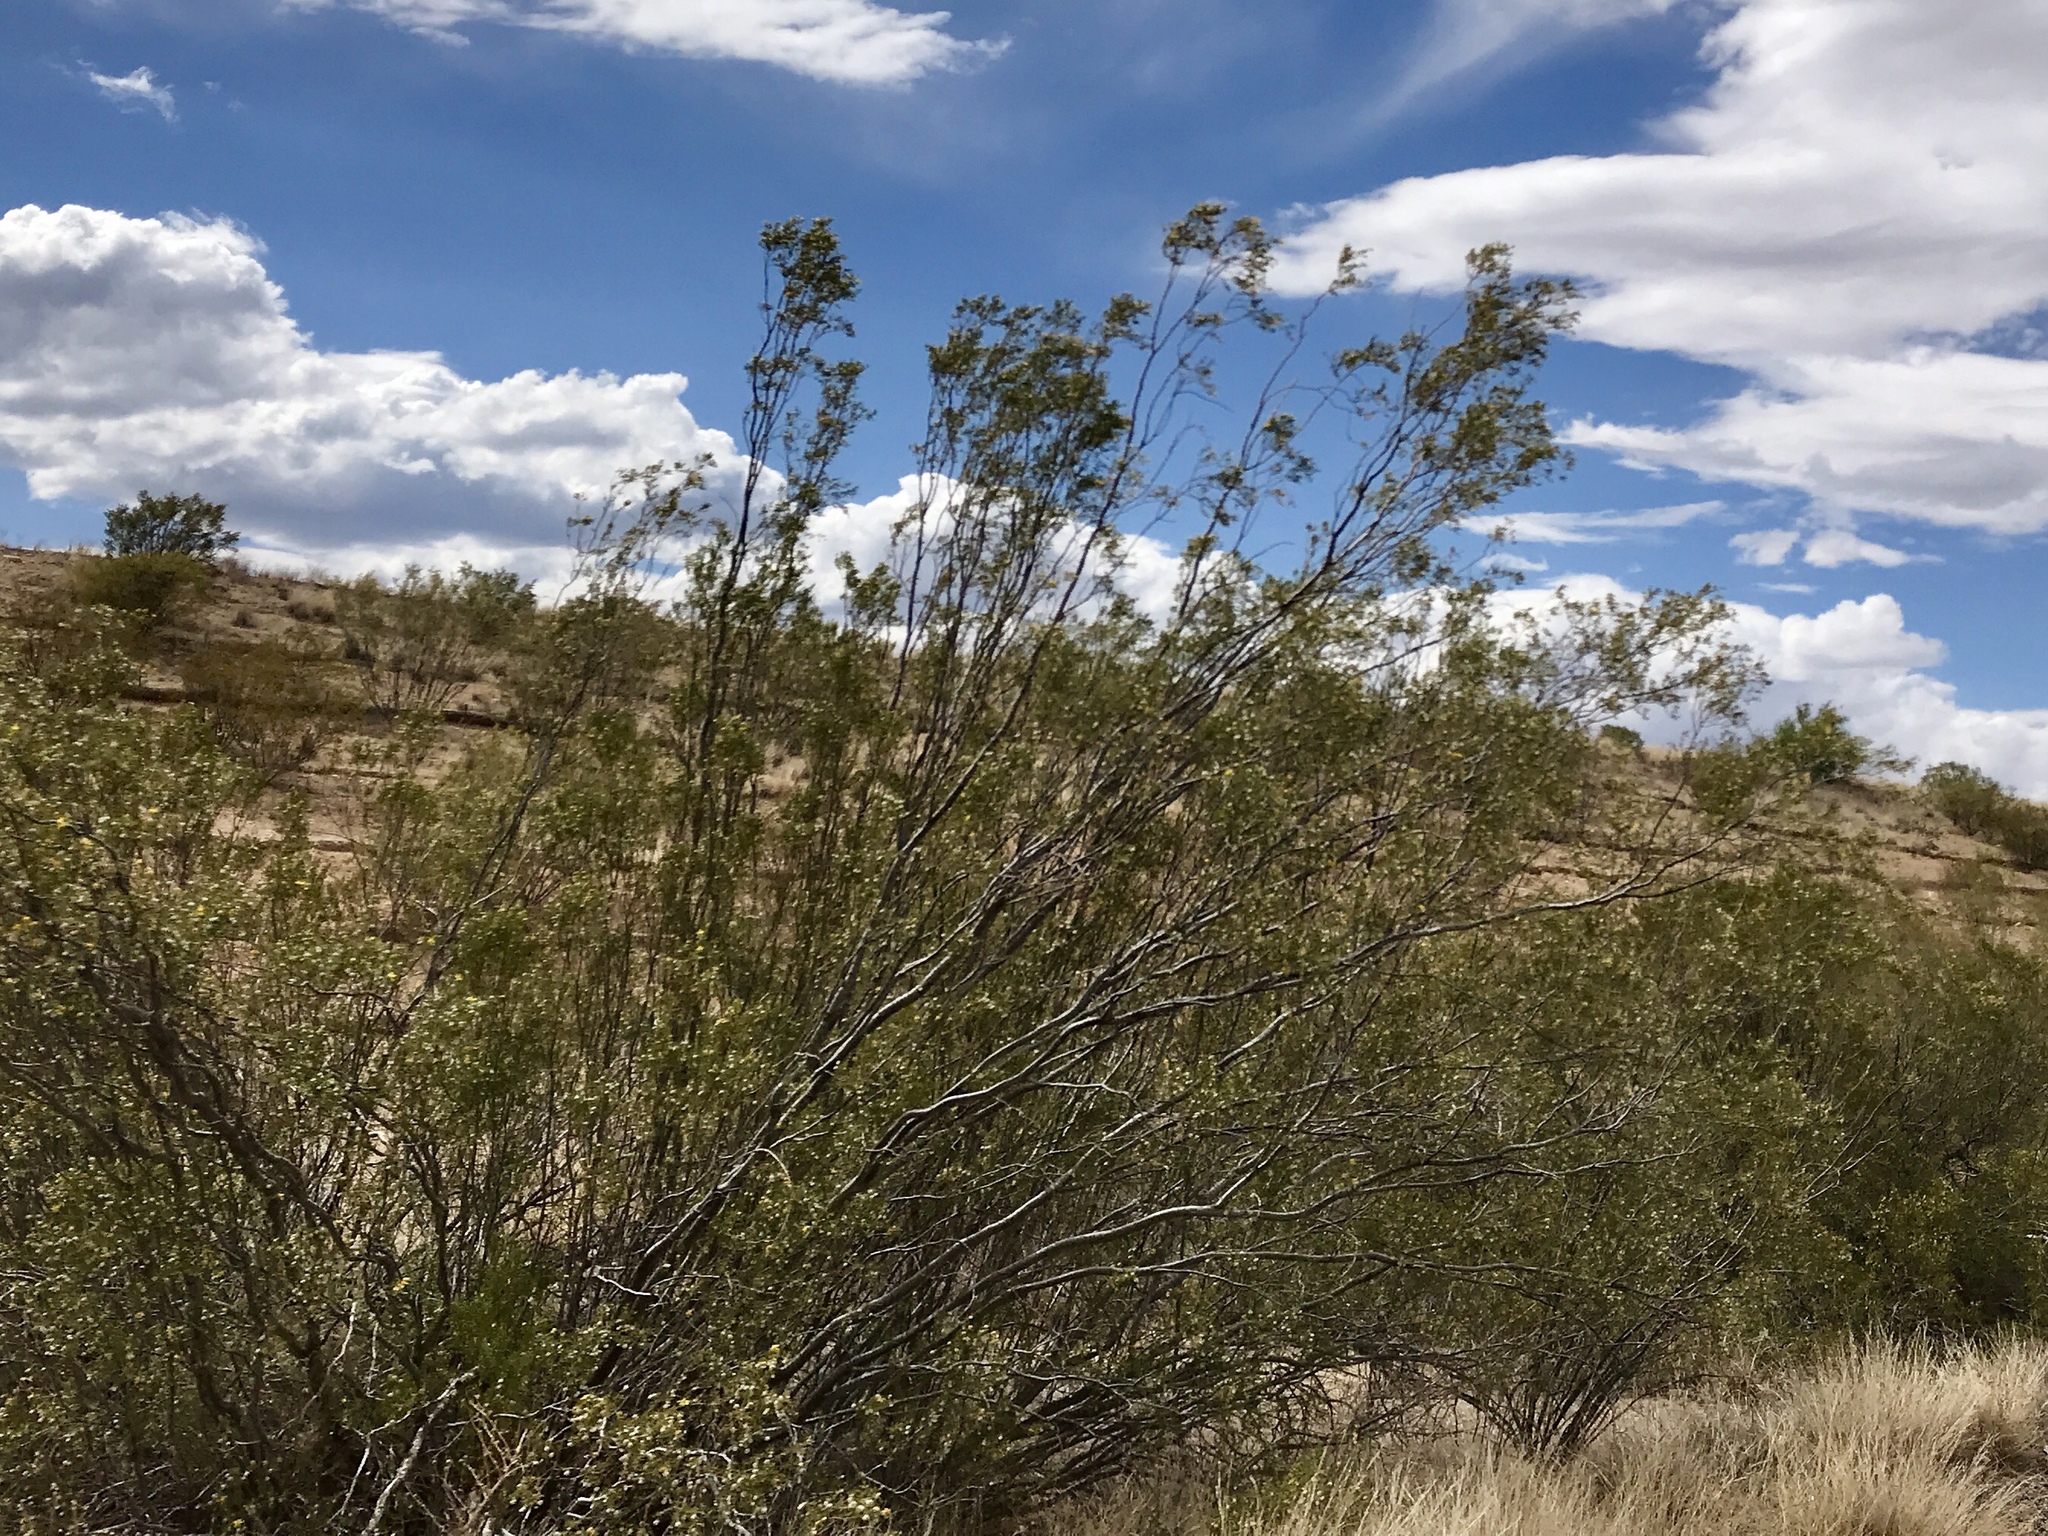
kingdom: Plantae
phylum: Tracheophyta
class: Magnoliopsida
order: Zygophyllales
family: Zygophyllaceae
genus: Larrea
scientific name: Larrea tridentata
